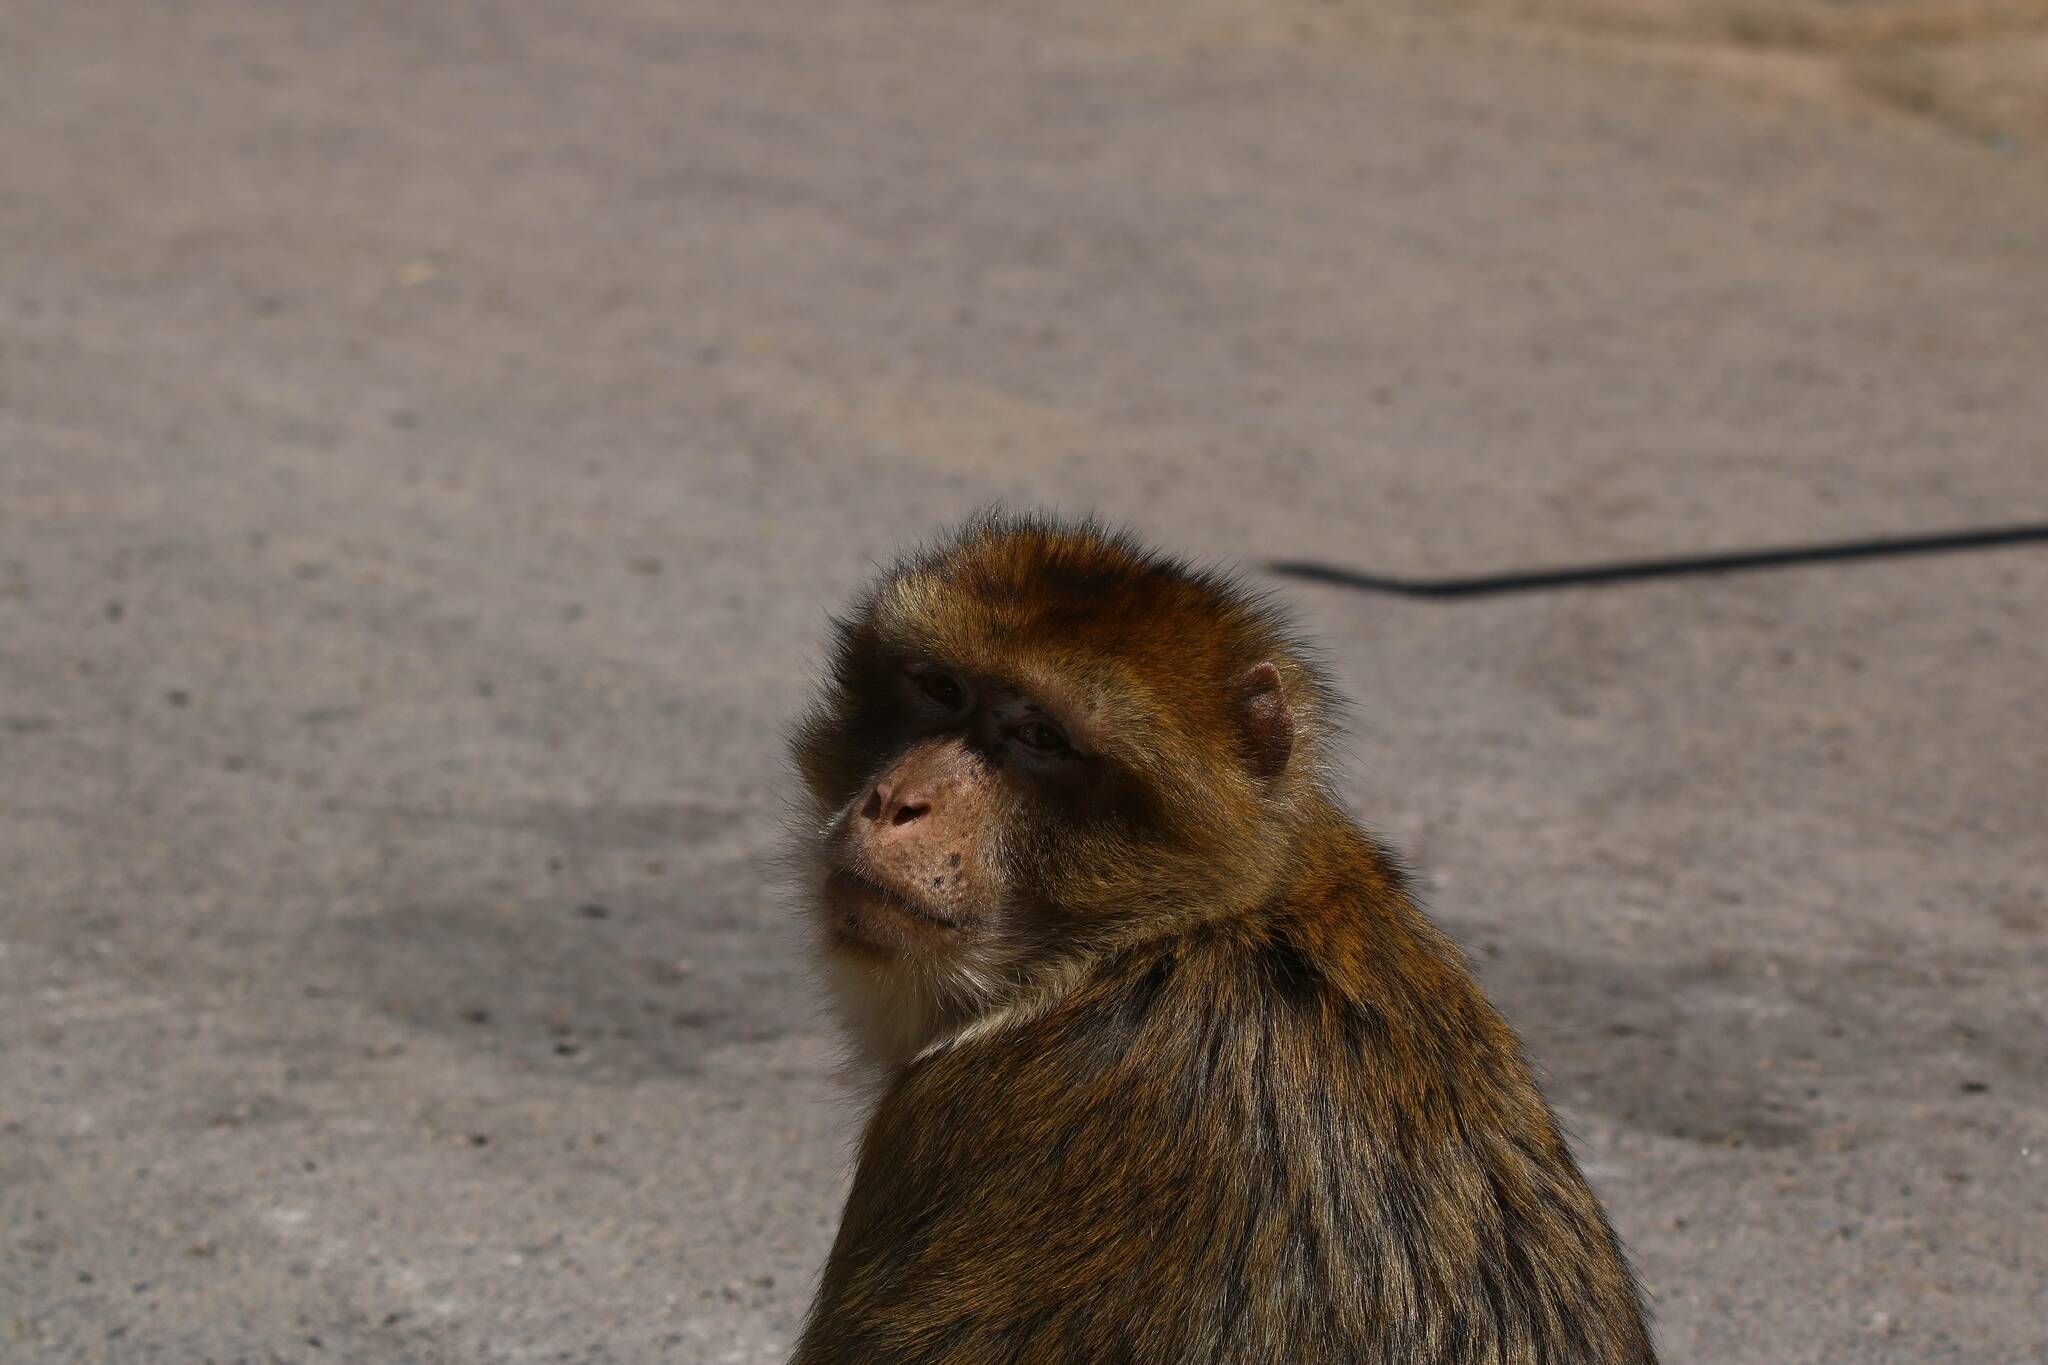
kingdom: Animalia
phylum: Chordata
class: Mammalia
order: Primates
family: Cercopithecidae
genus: Macaca
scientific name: Macaca sylvanus
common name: Barbary macaque
